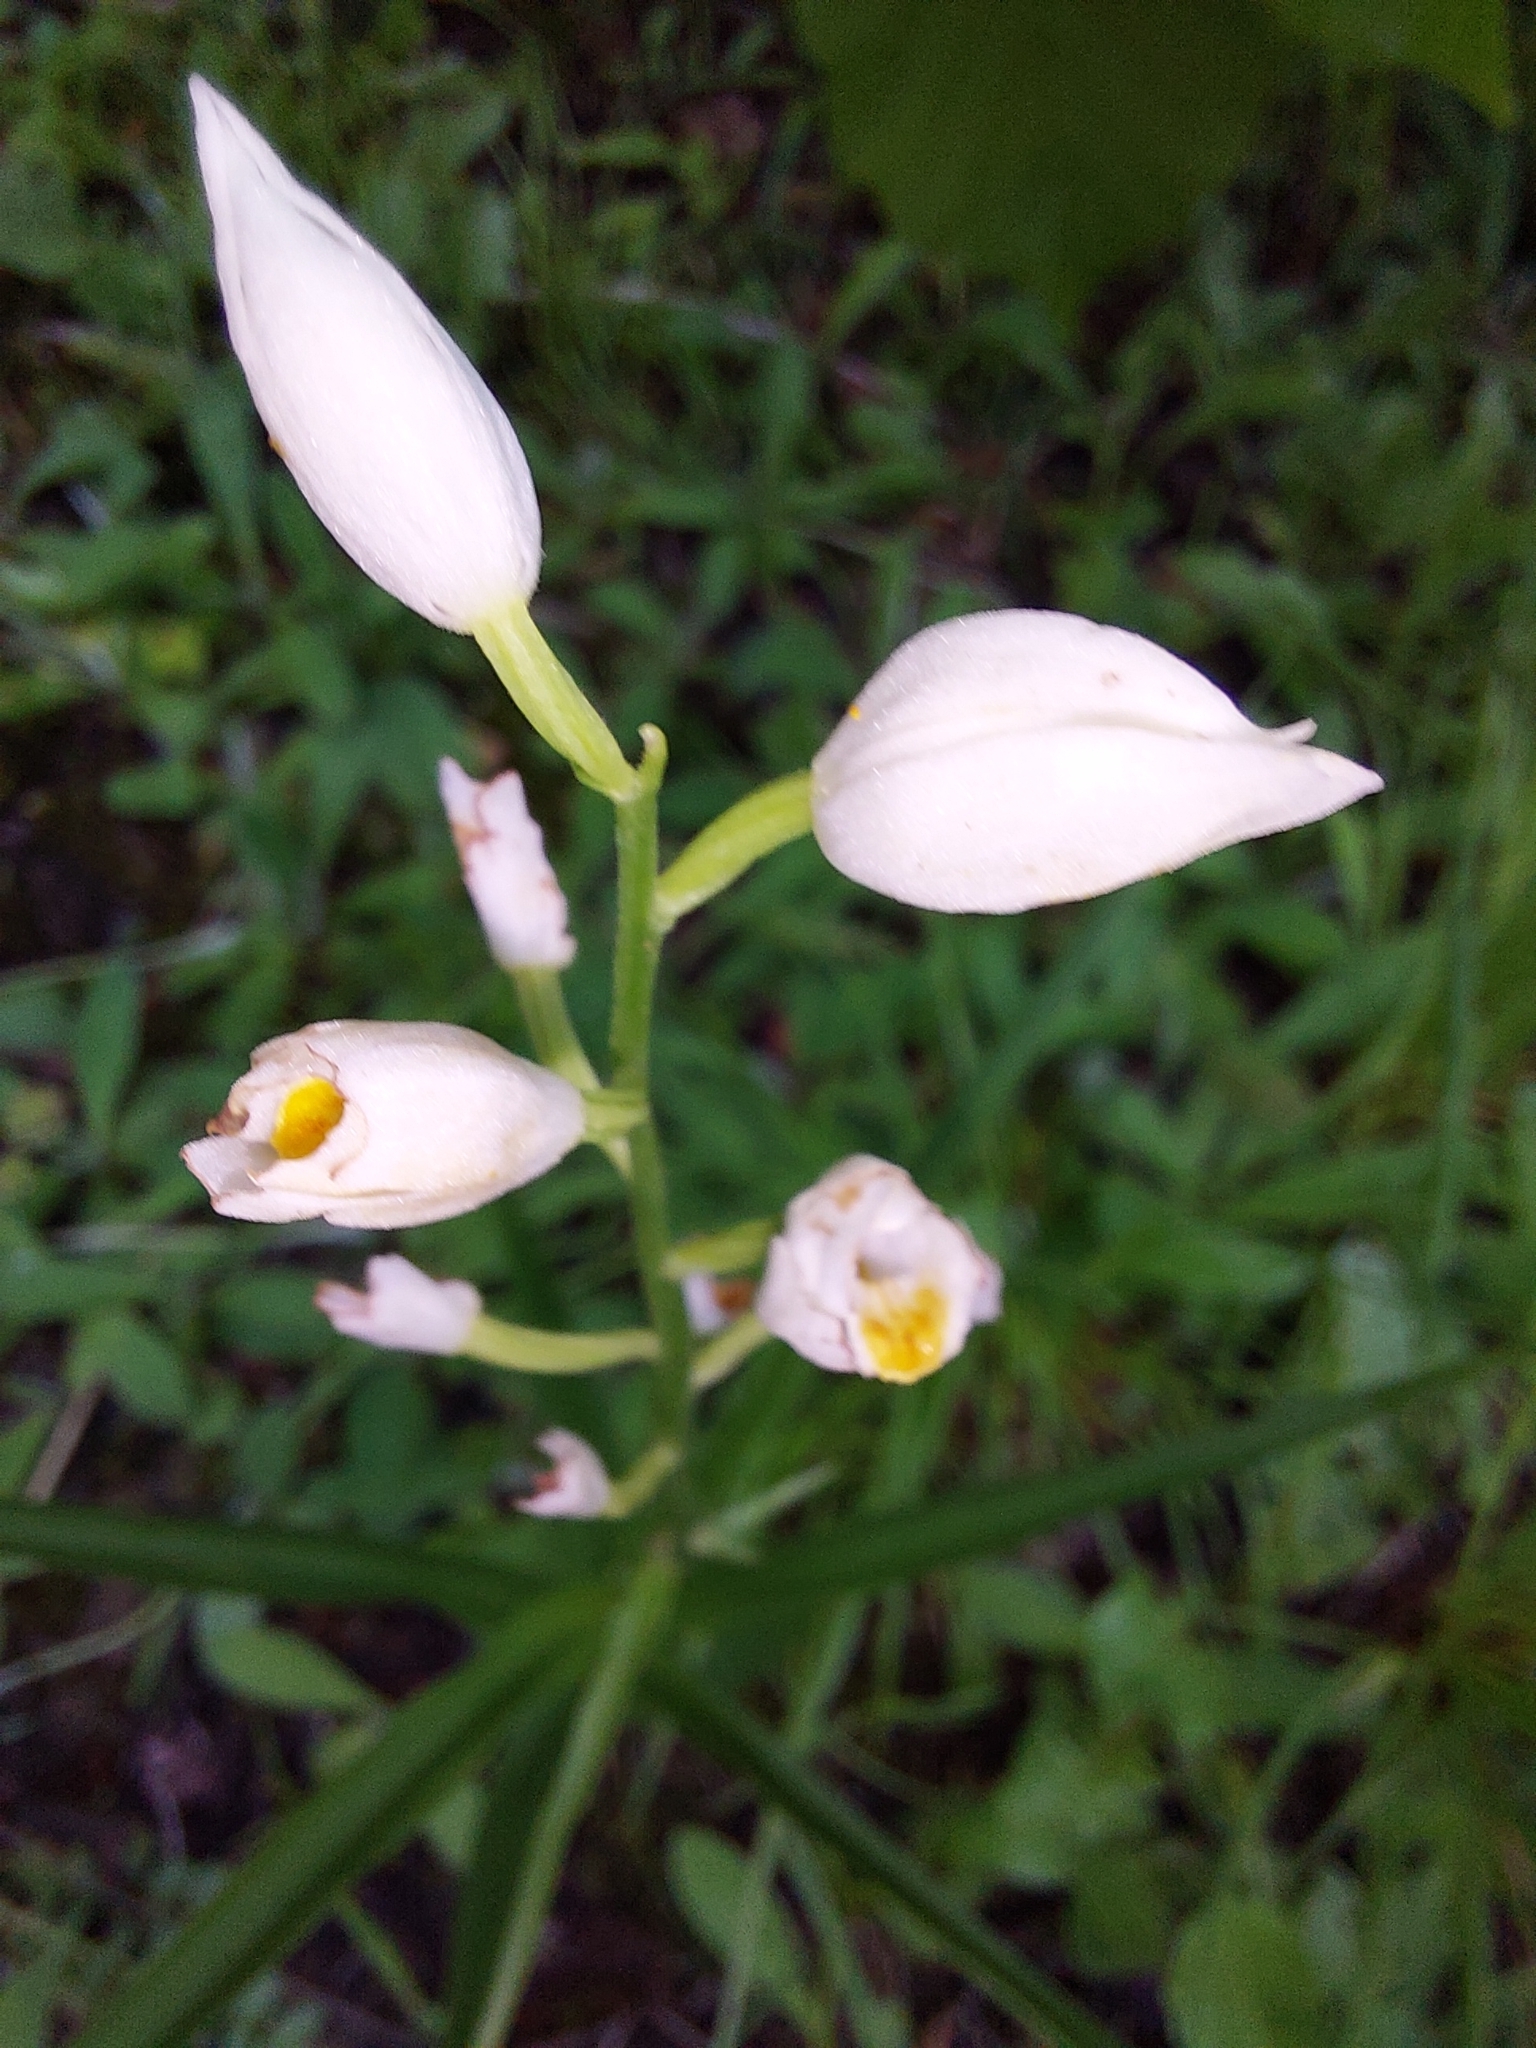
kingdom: Plantae
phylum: Tracheophyta
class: Liliopsida
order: Asparagales
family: Orchidaceae
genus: Cephalanthera
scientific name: Cephalanthera longifolia
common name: Narrow-leaved helleborine
